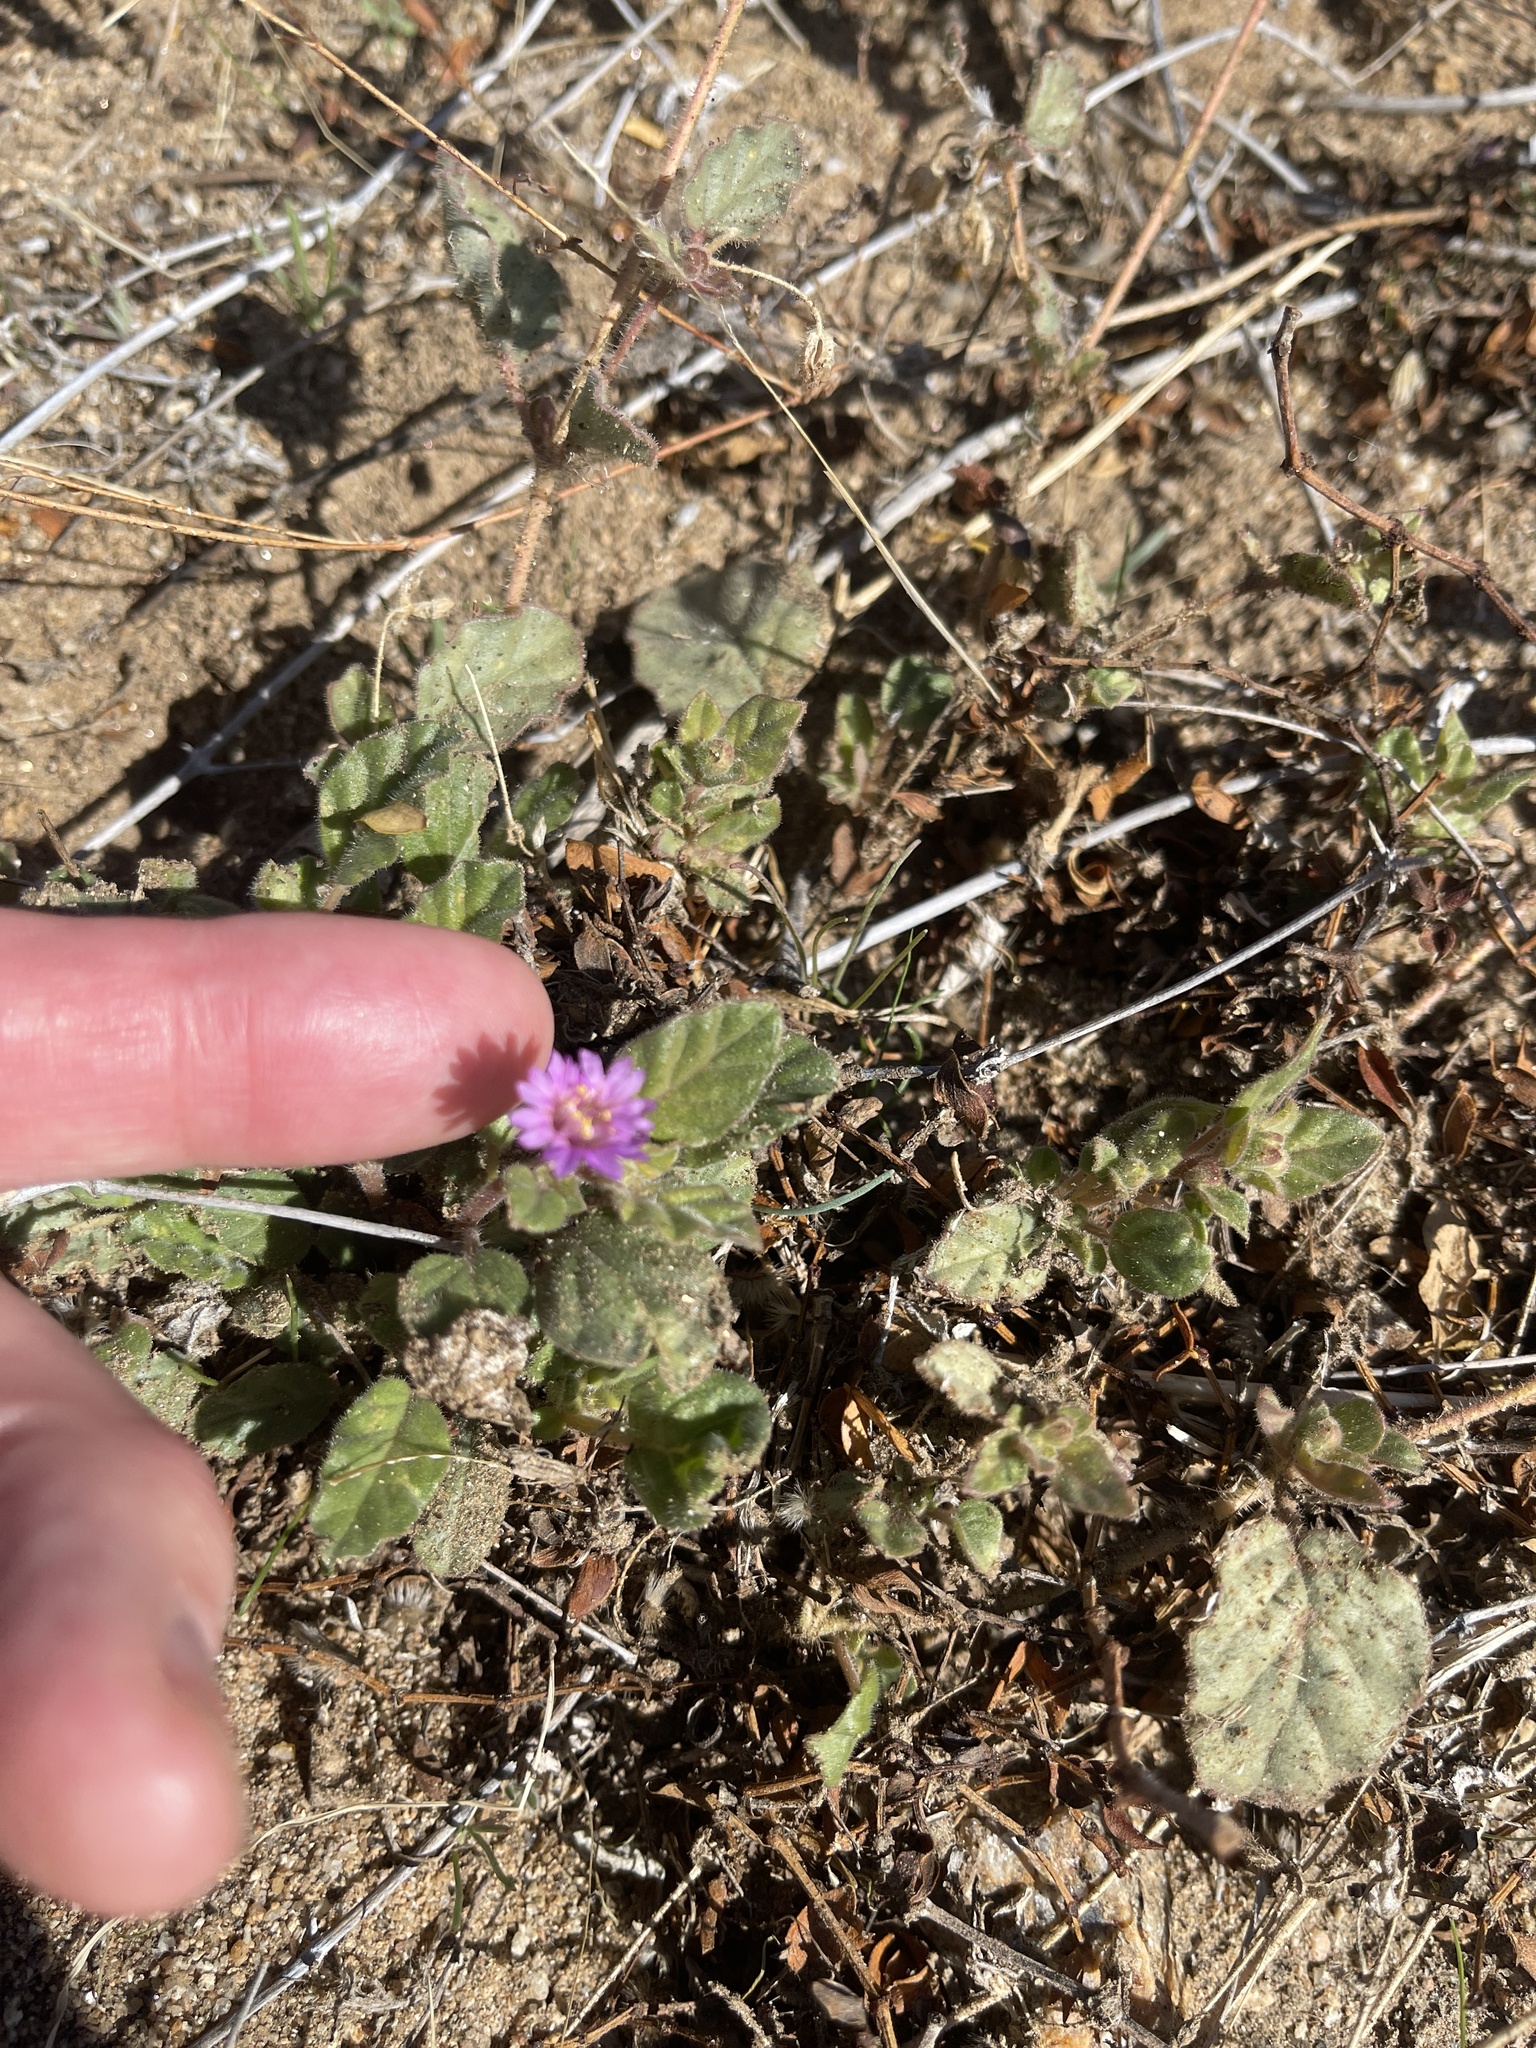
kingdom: Plantae
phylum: Tracheophyta
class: Magnoliopsida
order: Caryophyllales
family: Nyctaginaceae
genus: Allionia
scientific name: Allionia incarnata
